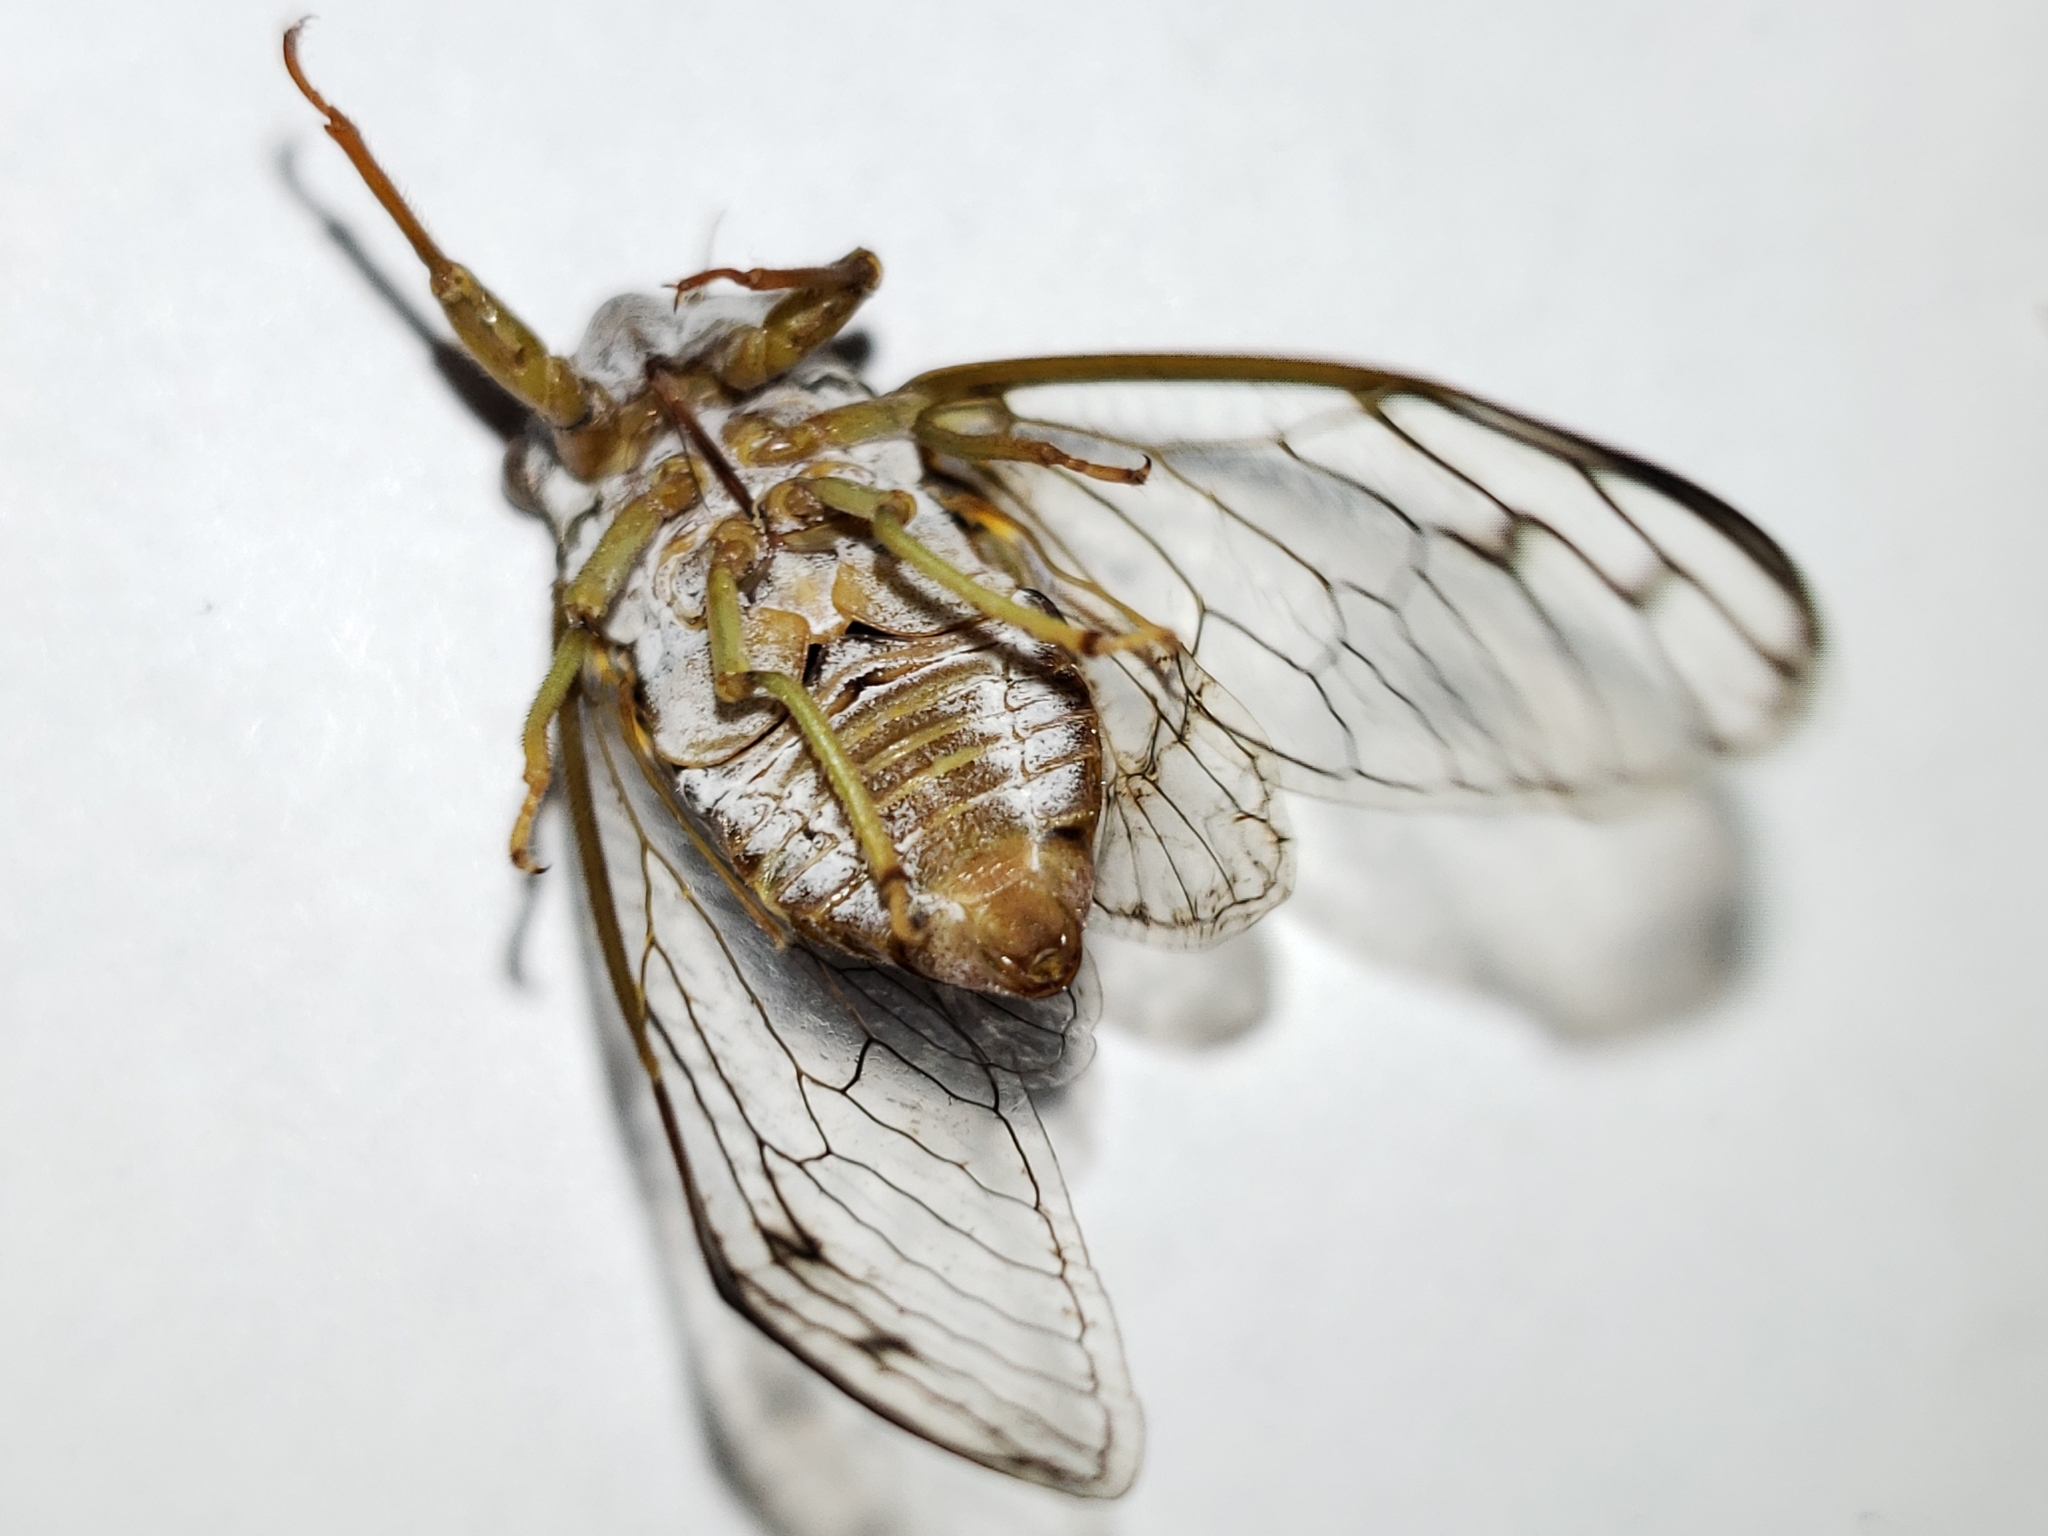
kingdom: Animalia
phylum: Arthropoda
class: Insecta
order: Hemiptera
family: Cicadidae
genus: Diceroprocta
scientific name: Diceroprocta olympusa
